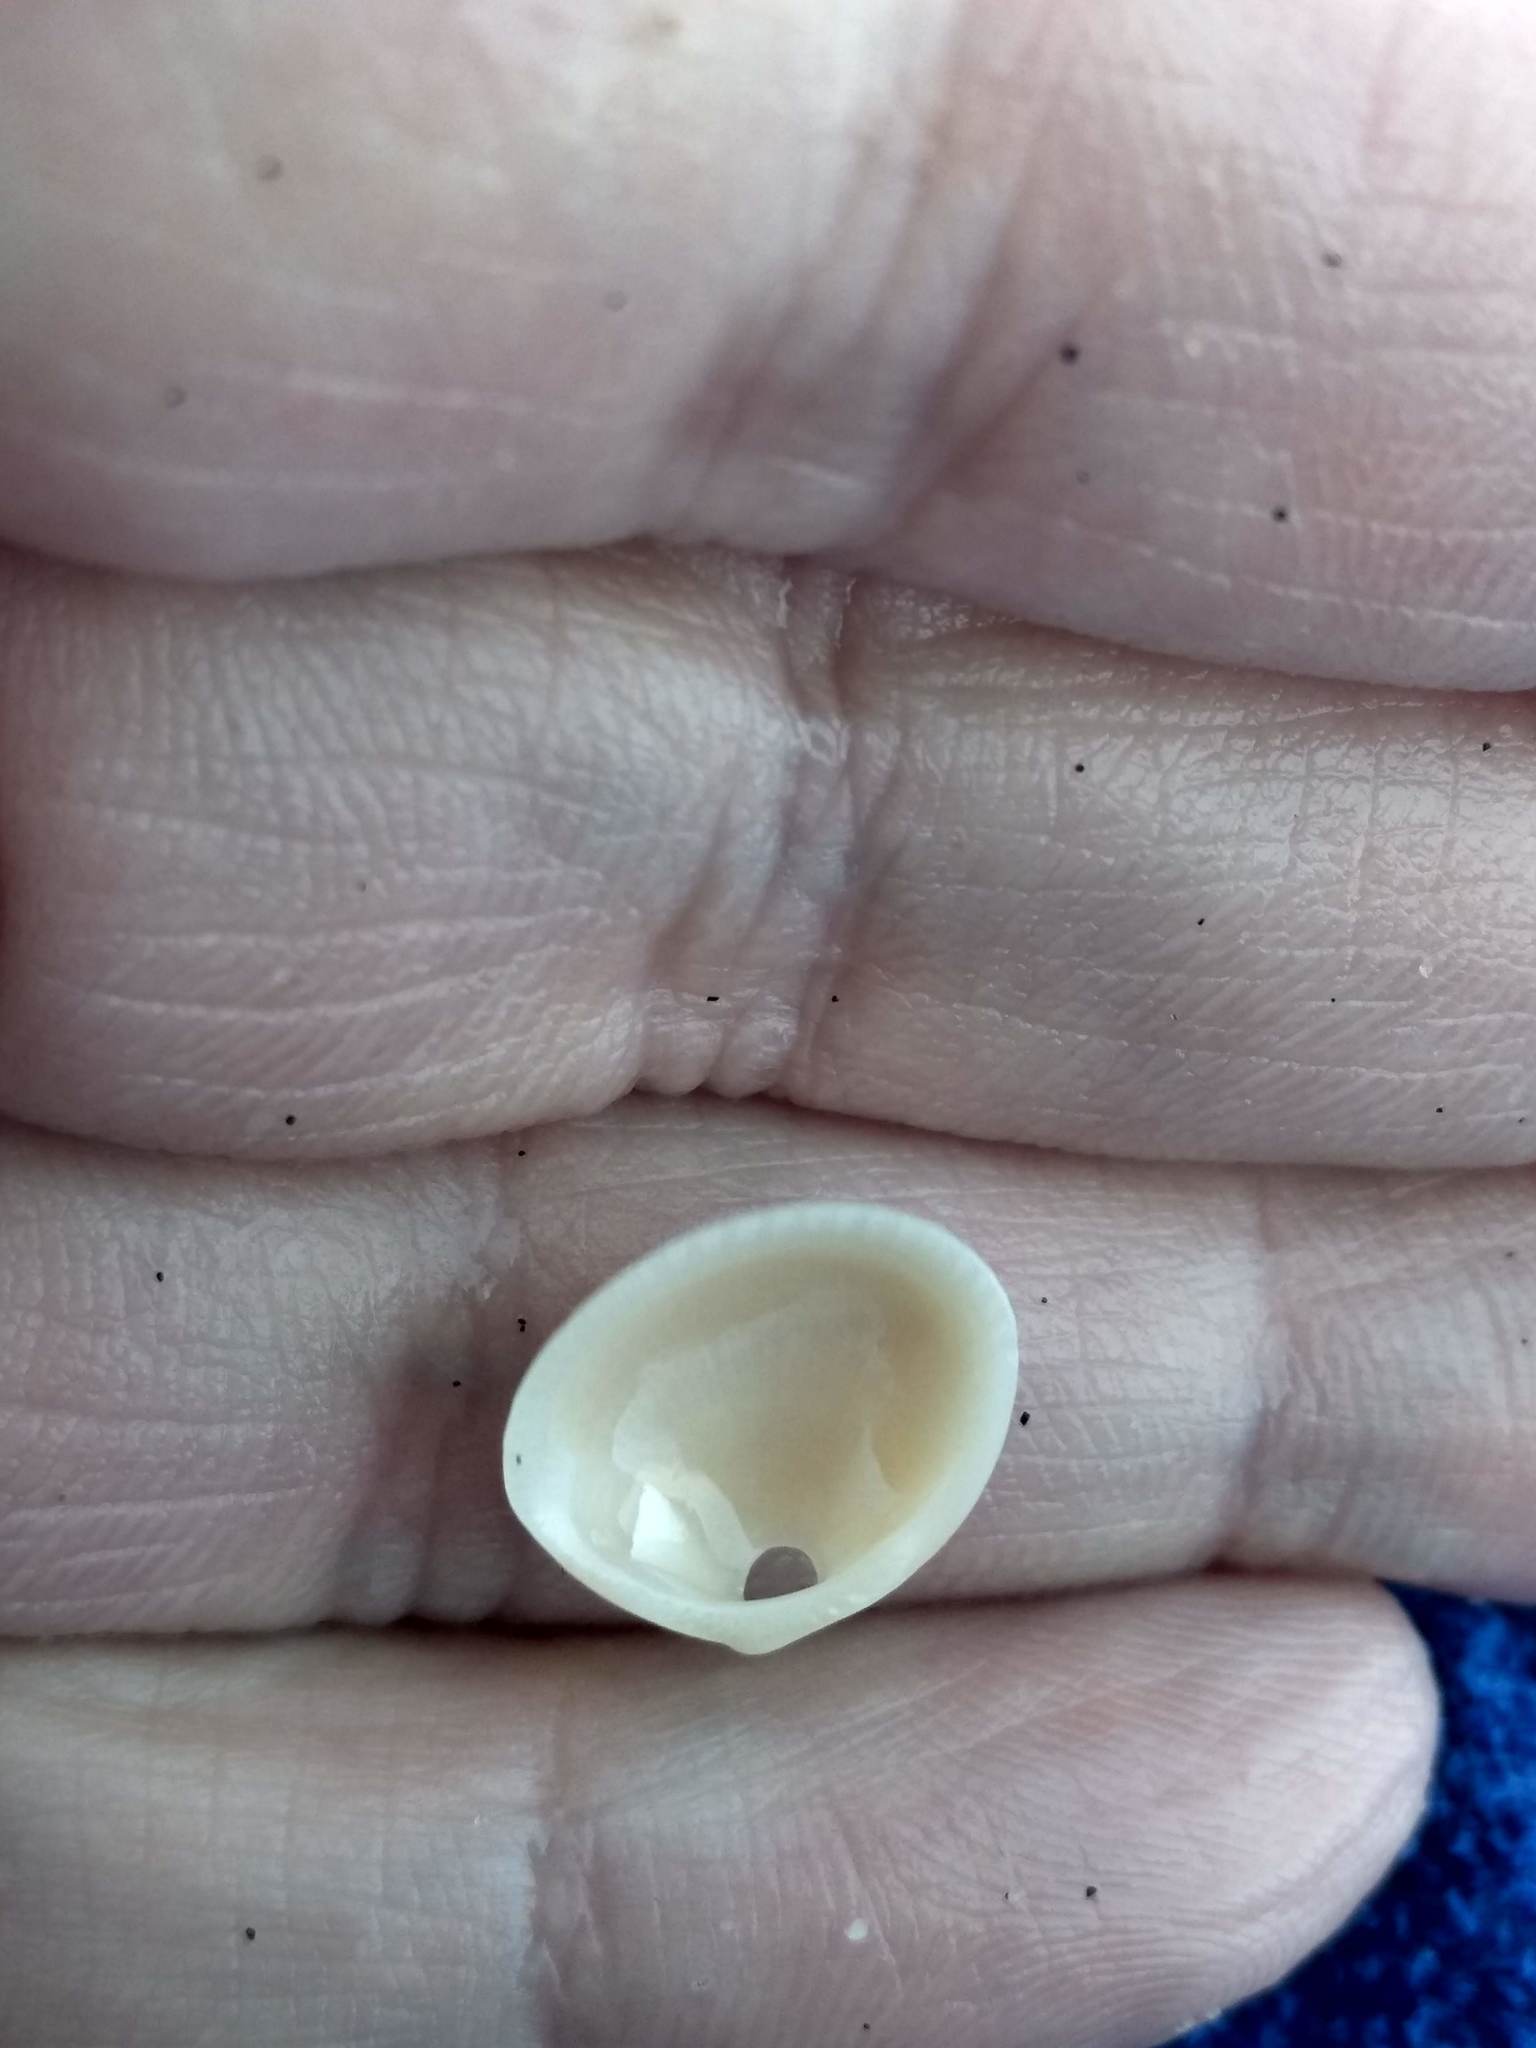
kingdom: Animalia
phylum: Mollusca
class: Bivalvia
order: Arcida
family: Glycymerididae
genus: Glycymeris
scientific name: Glycymeris septentrionalis
